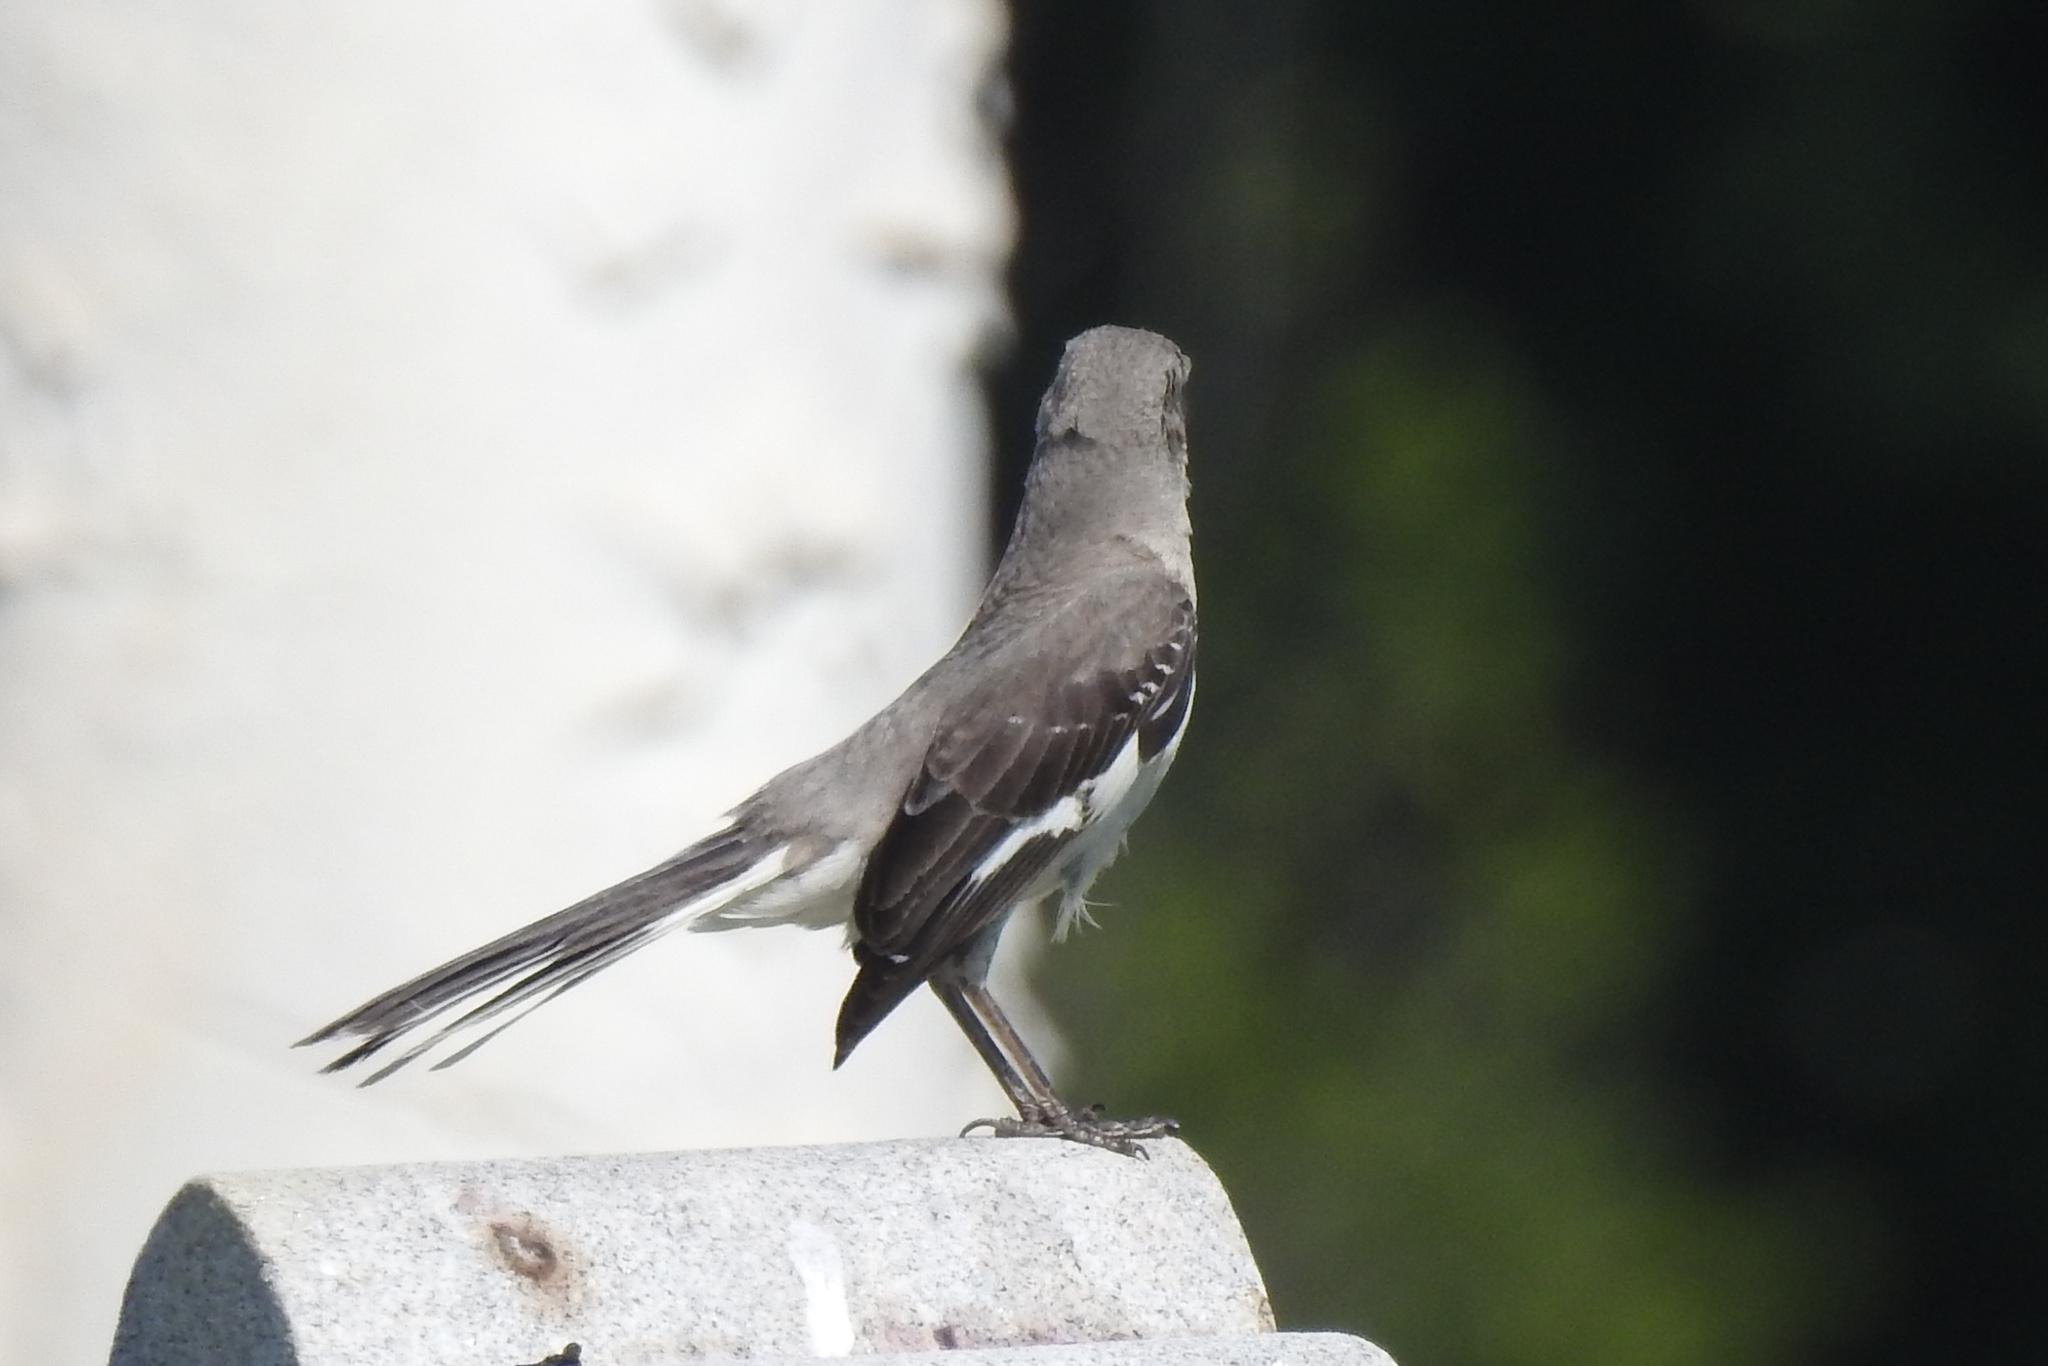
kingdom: Animalia
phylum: Chordata
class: Aves
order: Passeriformes
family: Mimidae
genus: Mimus
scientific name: Mimus polyglottos
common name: Northern mockingbird
